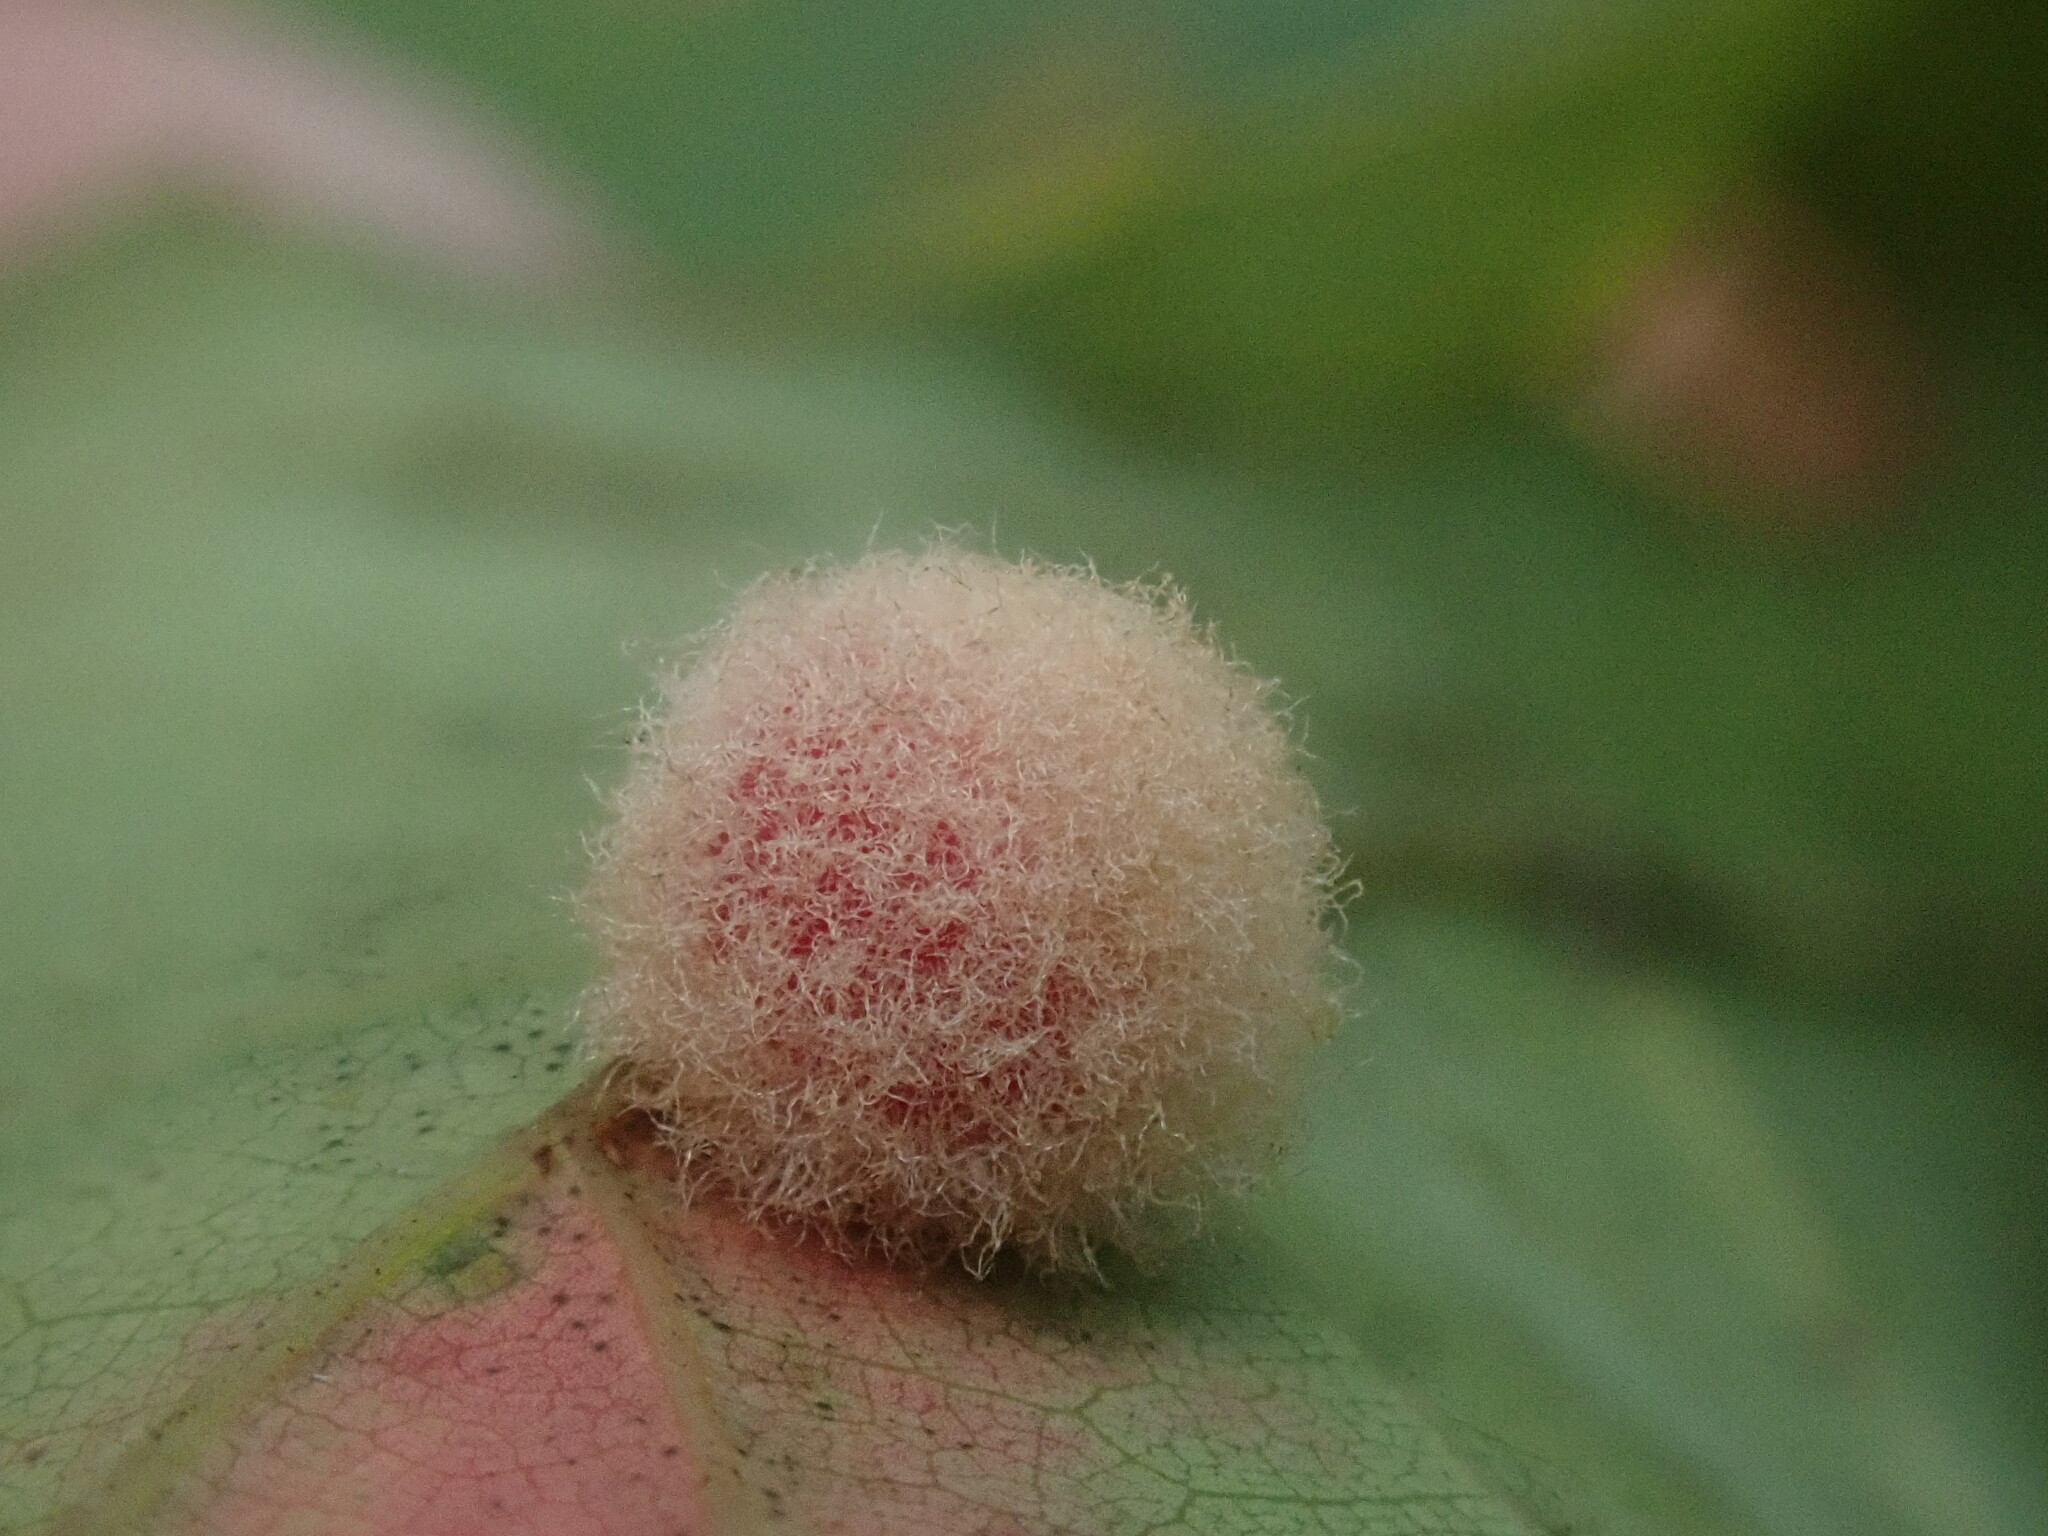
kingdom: Animalia
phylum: Arthropoda
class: Insecta
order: Hymenoptera
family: Cynipidae
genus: Callirhytis
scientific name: Callirhytis
